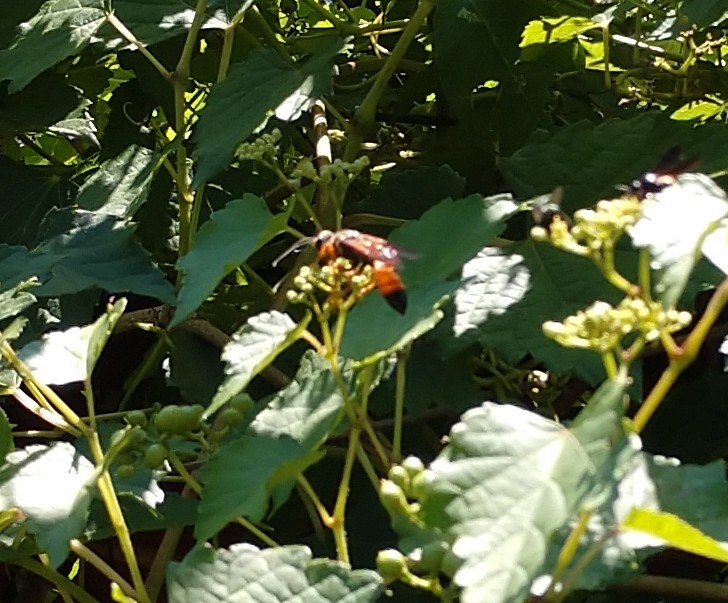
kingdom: Animalia
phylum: Arthropoda
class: Insecta
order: Hymenoptera
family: Sphecidae
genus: Sphex
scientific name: Sphex ichneumoneus
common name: Great golden digger wasp
